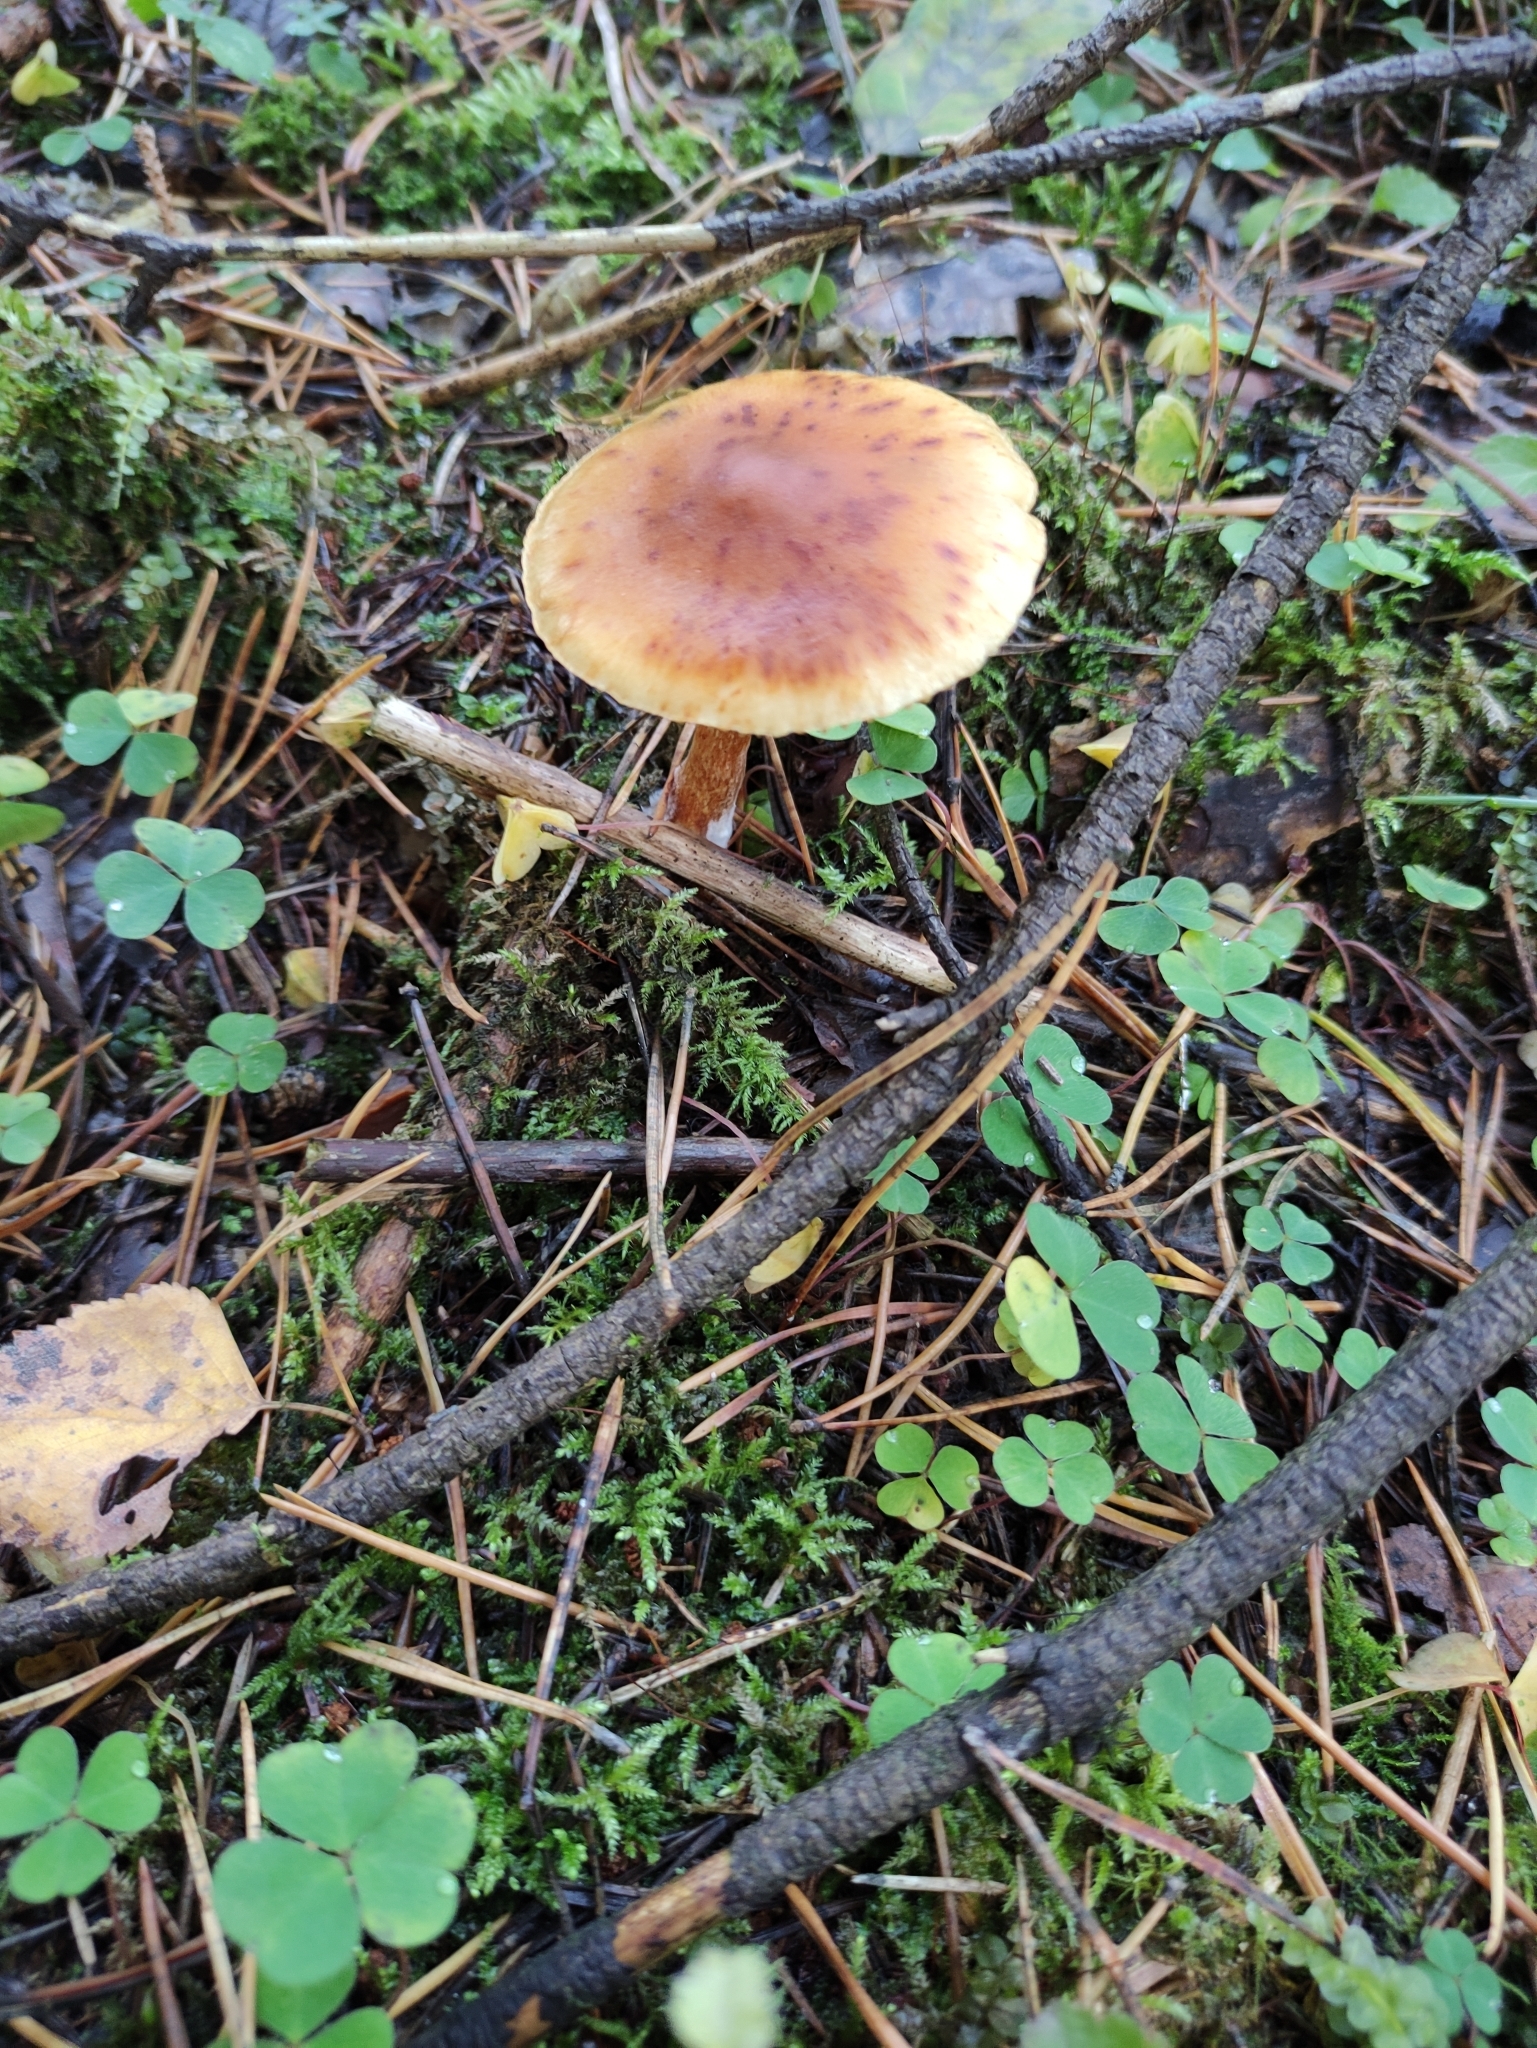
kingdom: Fungi
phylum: Basidiomycota
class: Agaricomycetes
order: Agaricales
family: Hymenogastraceae
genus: Gymnopilus
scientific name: Gymnopilus penetrans
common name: Common rustgill
